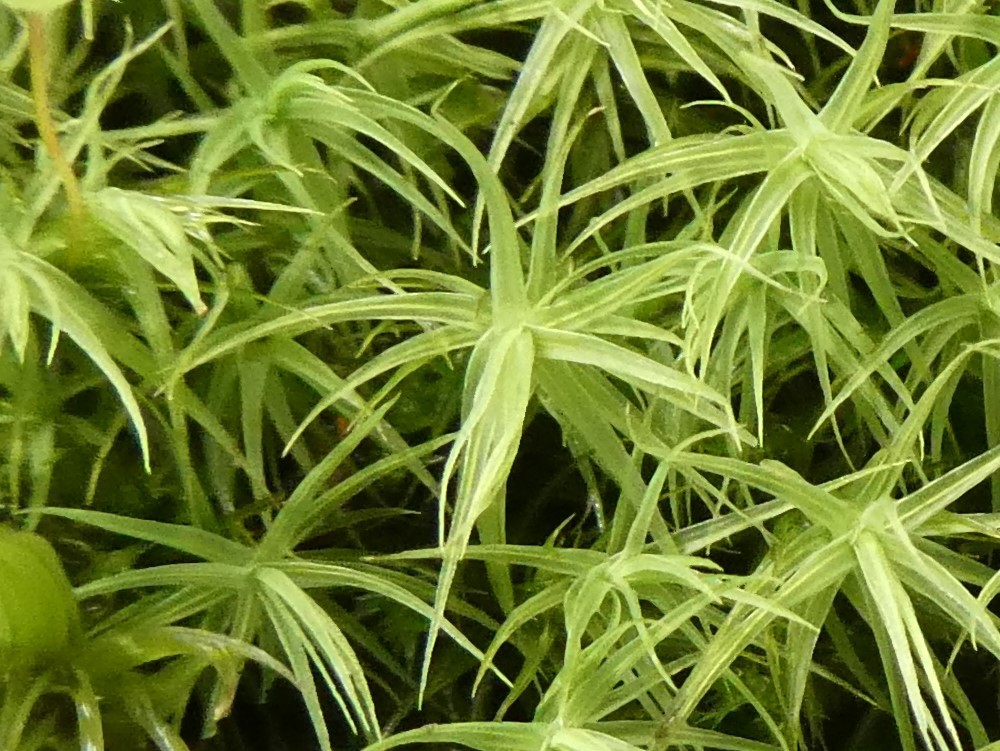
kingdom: Plantae
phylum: Bryophyta
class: Bryopsida
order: Bartramiales
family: Bartramiaceae
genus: Bartramia
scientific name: Bartramia ithyphylla
